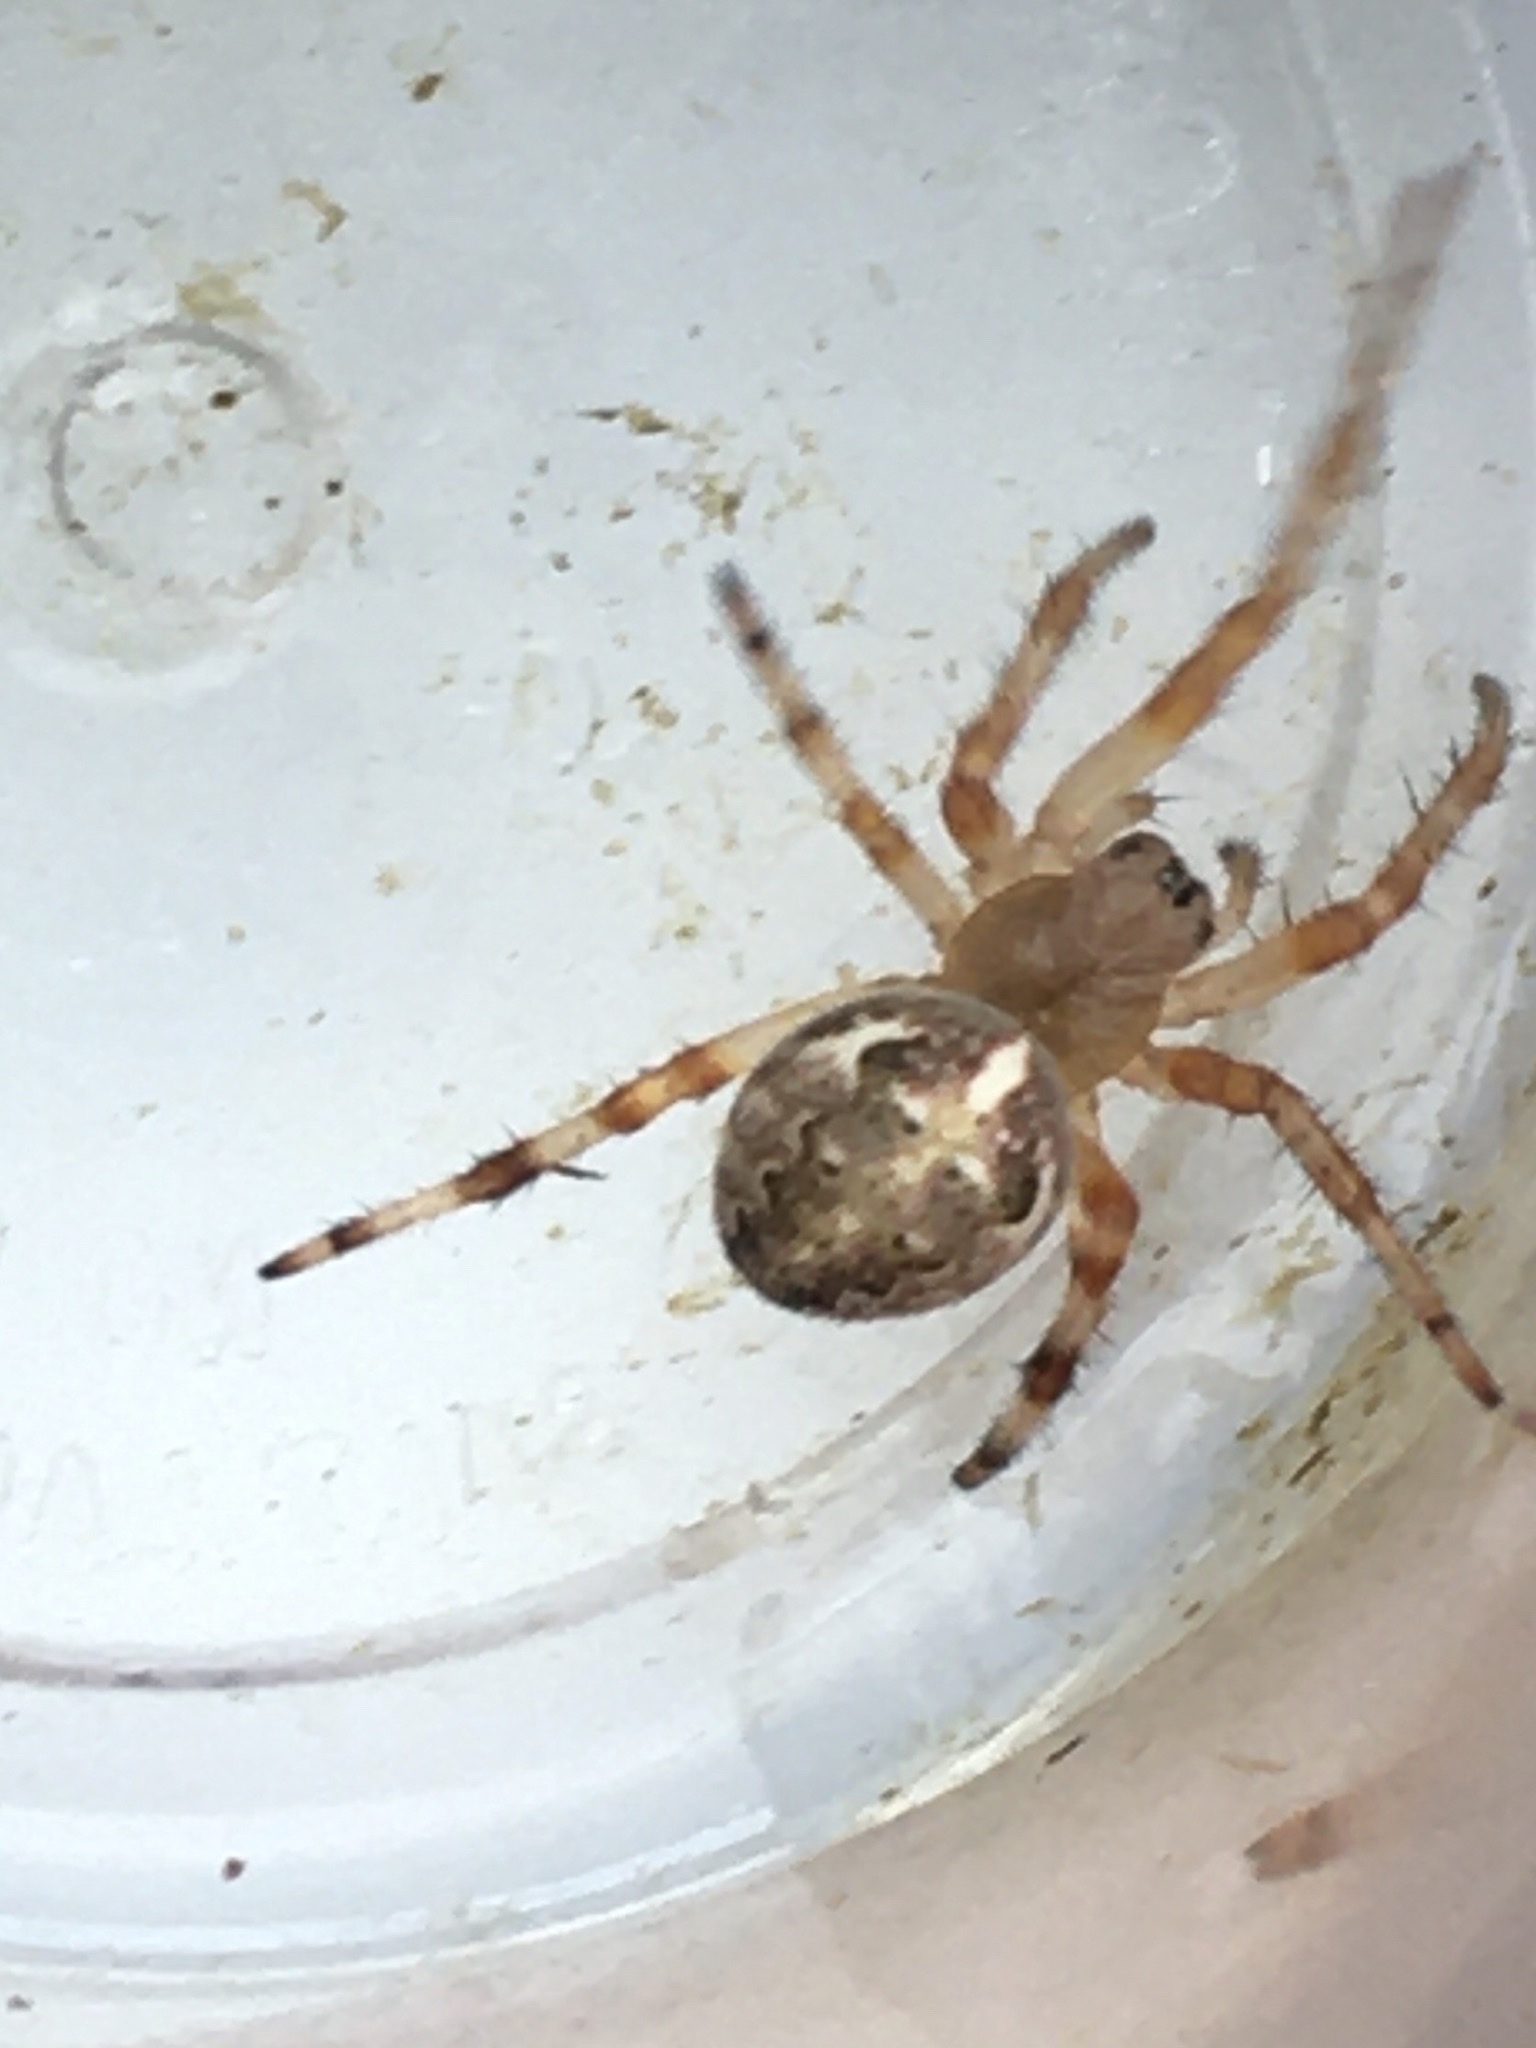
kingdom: Animalia
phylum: Arthropoda
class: Arachnida
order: Araneae
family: Araneidae
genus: Araneus
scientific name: Araneus marmoreus
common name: Marbled orbweaver
